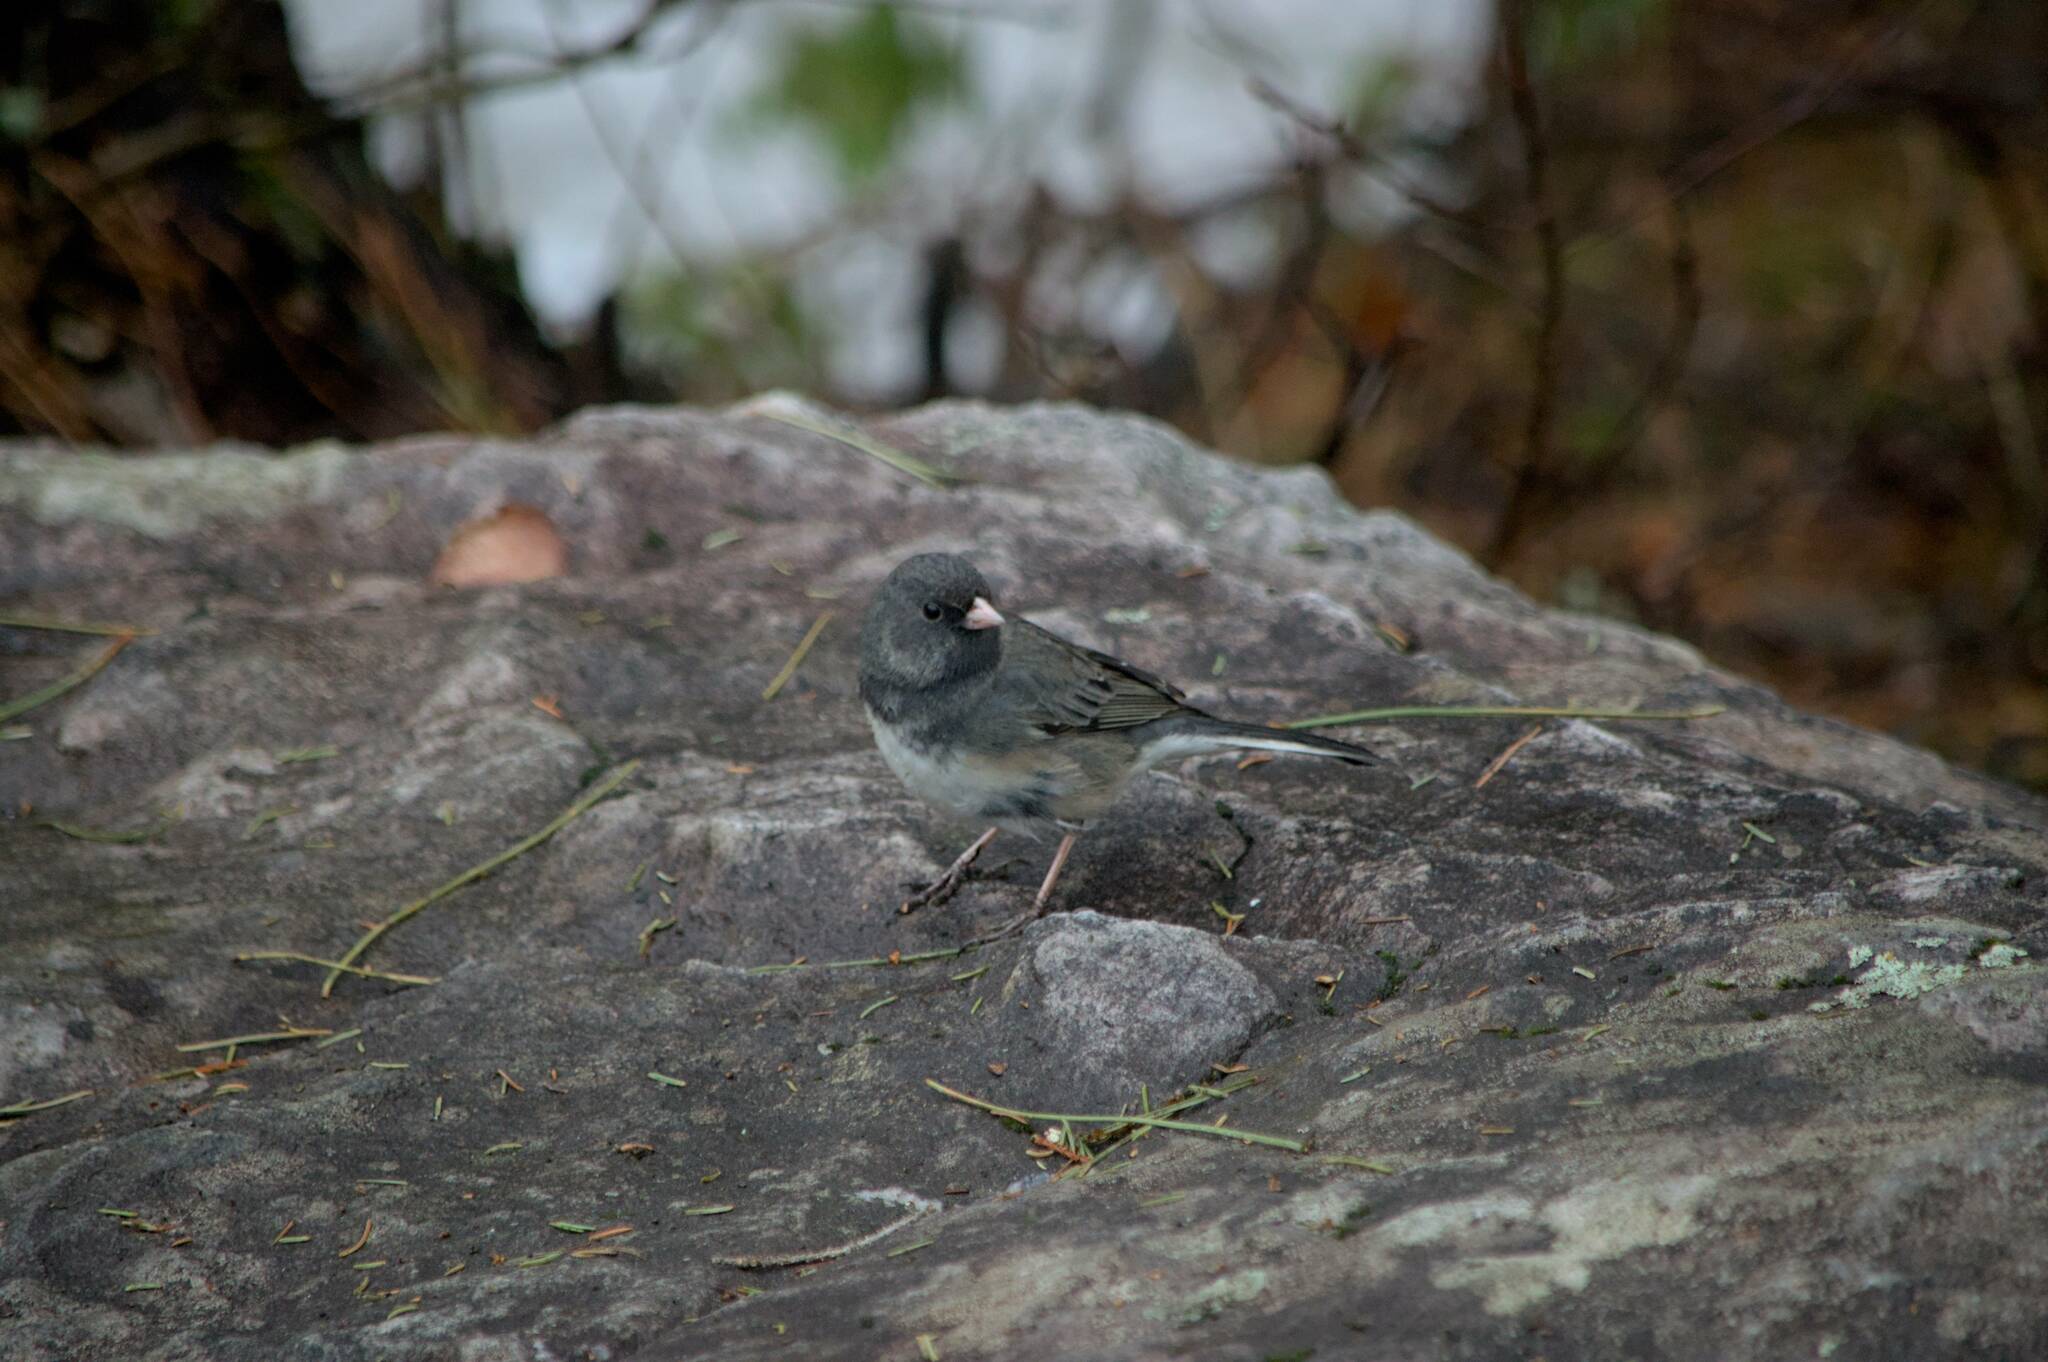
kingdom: Animalia
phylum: Chordata
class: Aves
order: Passeriformes
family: Passerellidae
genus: Junco
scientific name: Junco hyemalis
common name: Dark-eyed junco
